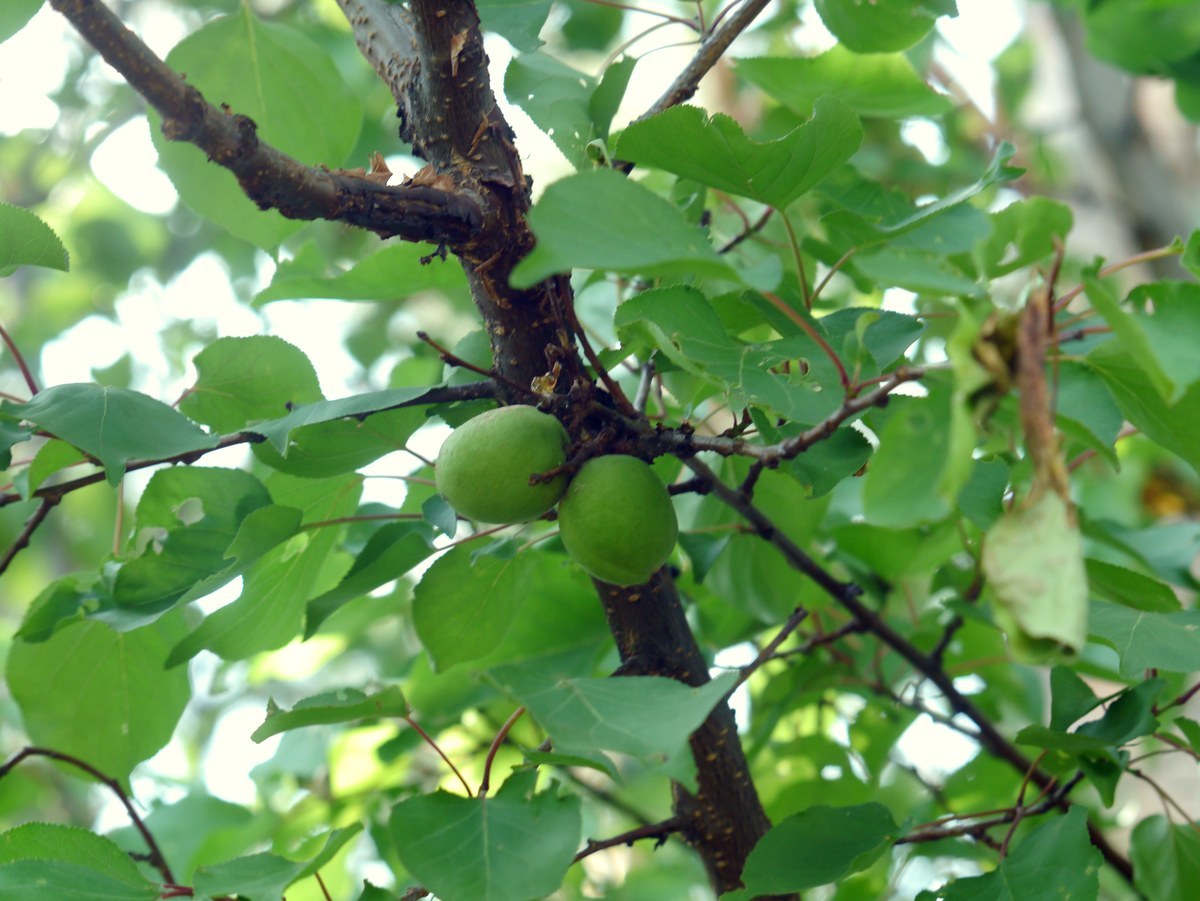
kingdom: Plantae
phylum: Tracheophyta
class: Magnoliopsida
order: Rosales
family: Rosaceae
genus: Prunus
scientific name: Prunus armeniaca
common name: Apricot
